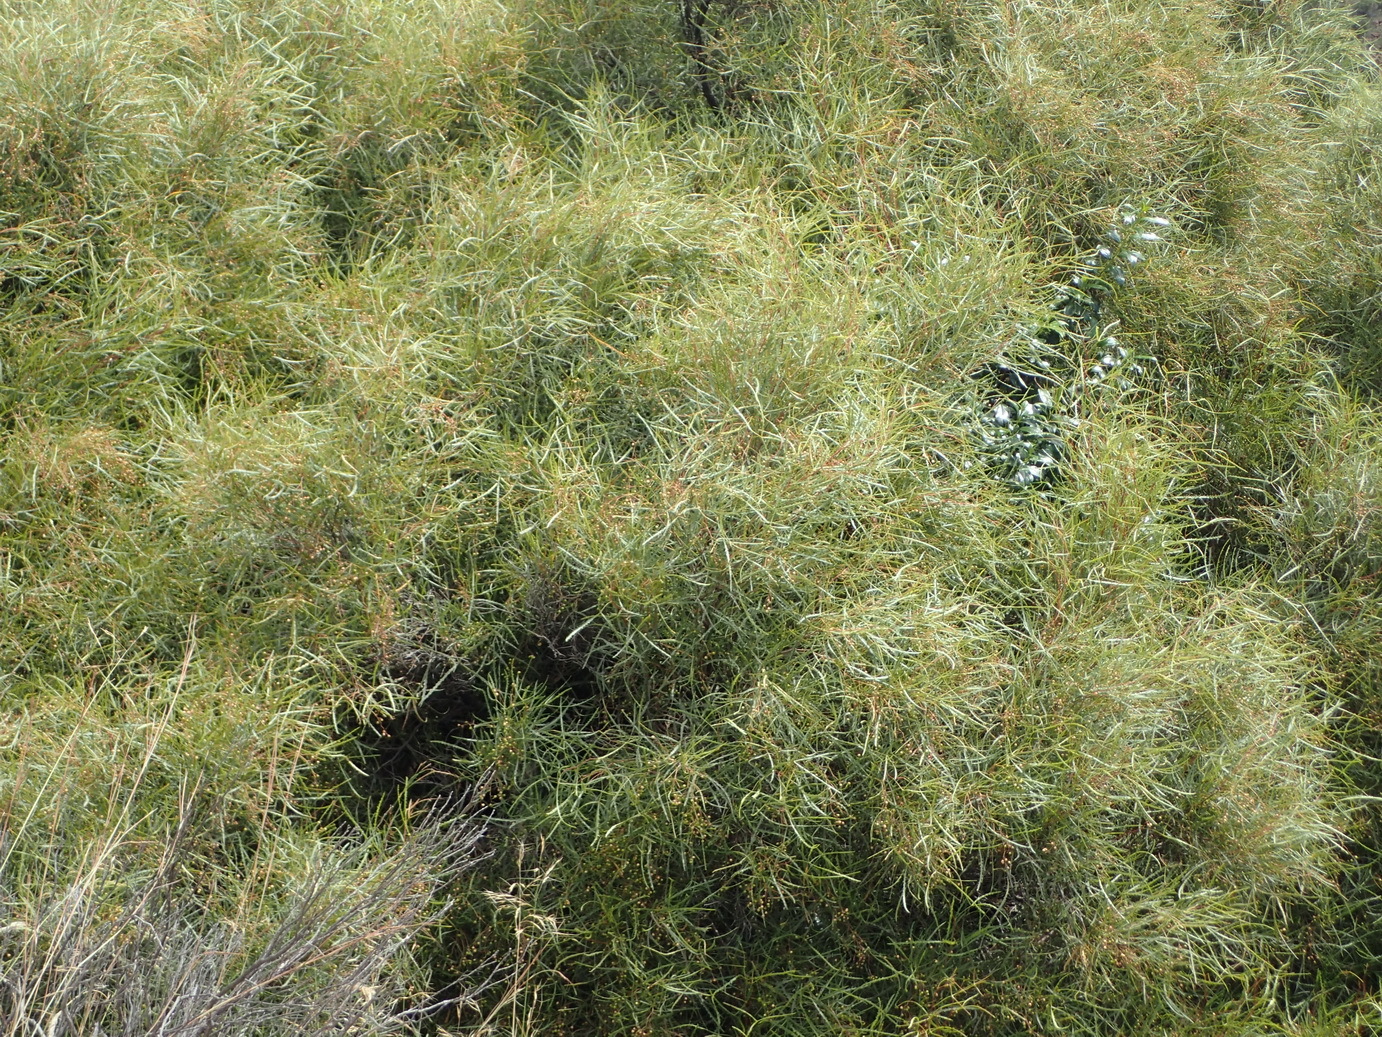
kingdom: Plantae
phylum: Tracheophyta
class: Magnoliopsida
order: Sapindales
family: Anacardiaceae
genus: Searsia
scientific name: Searsia erosa
